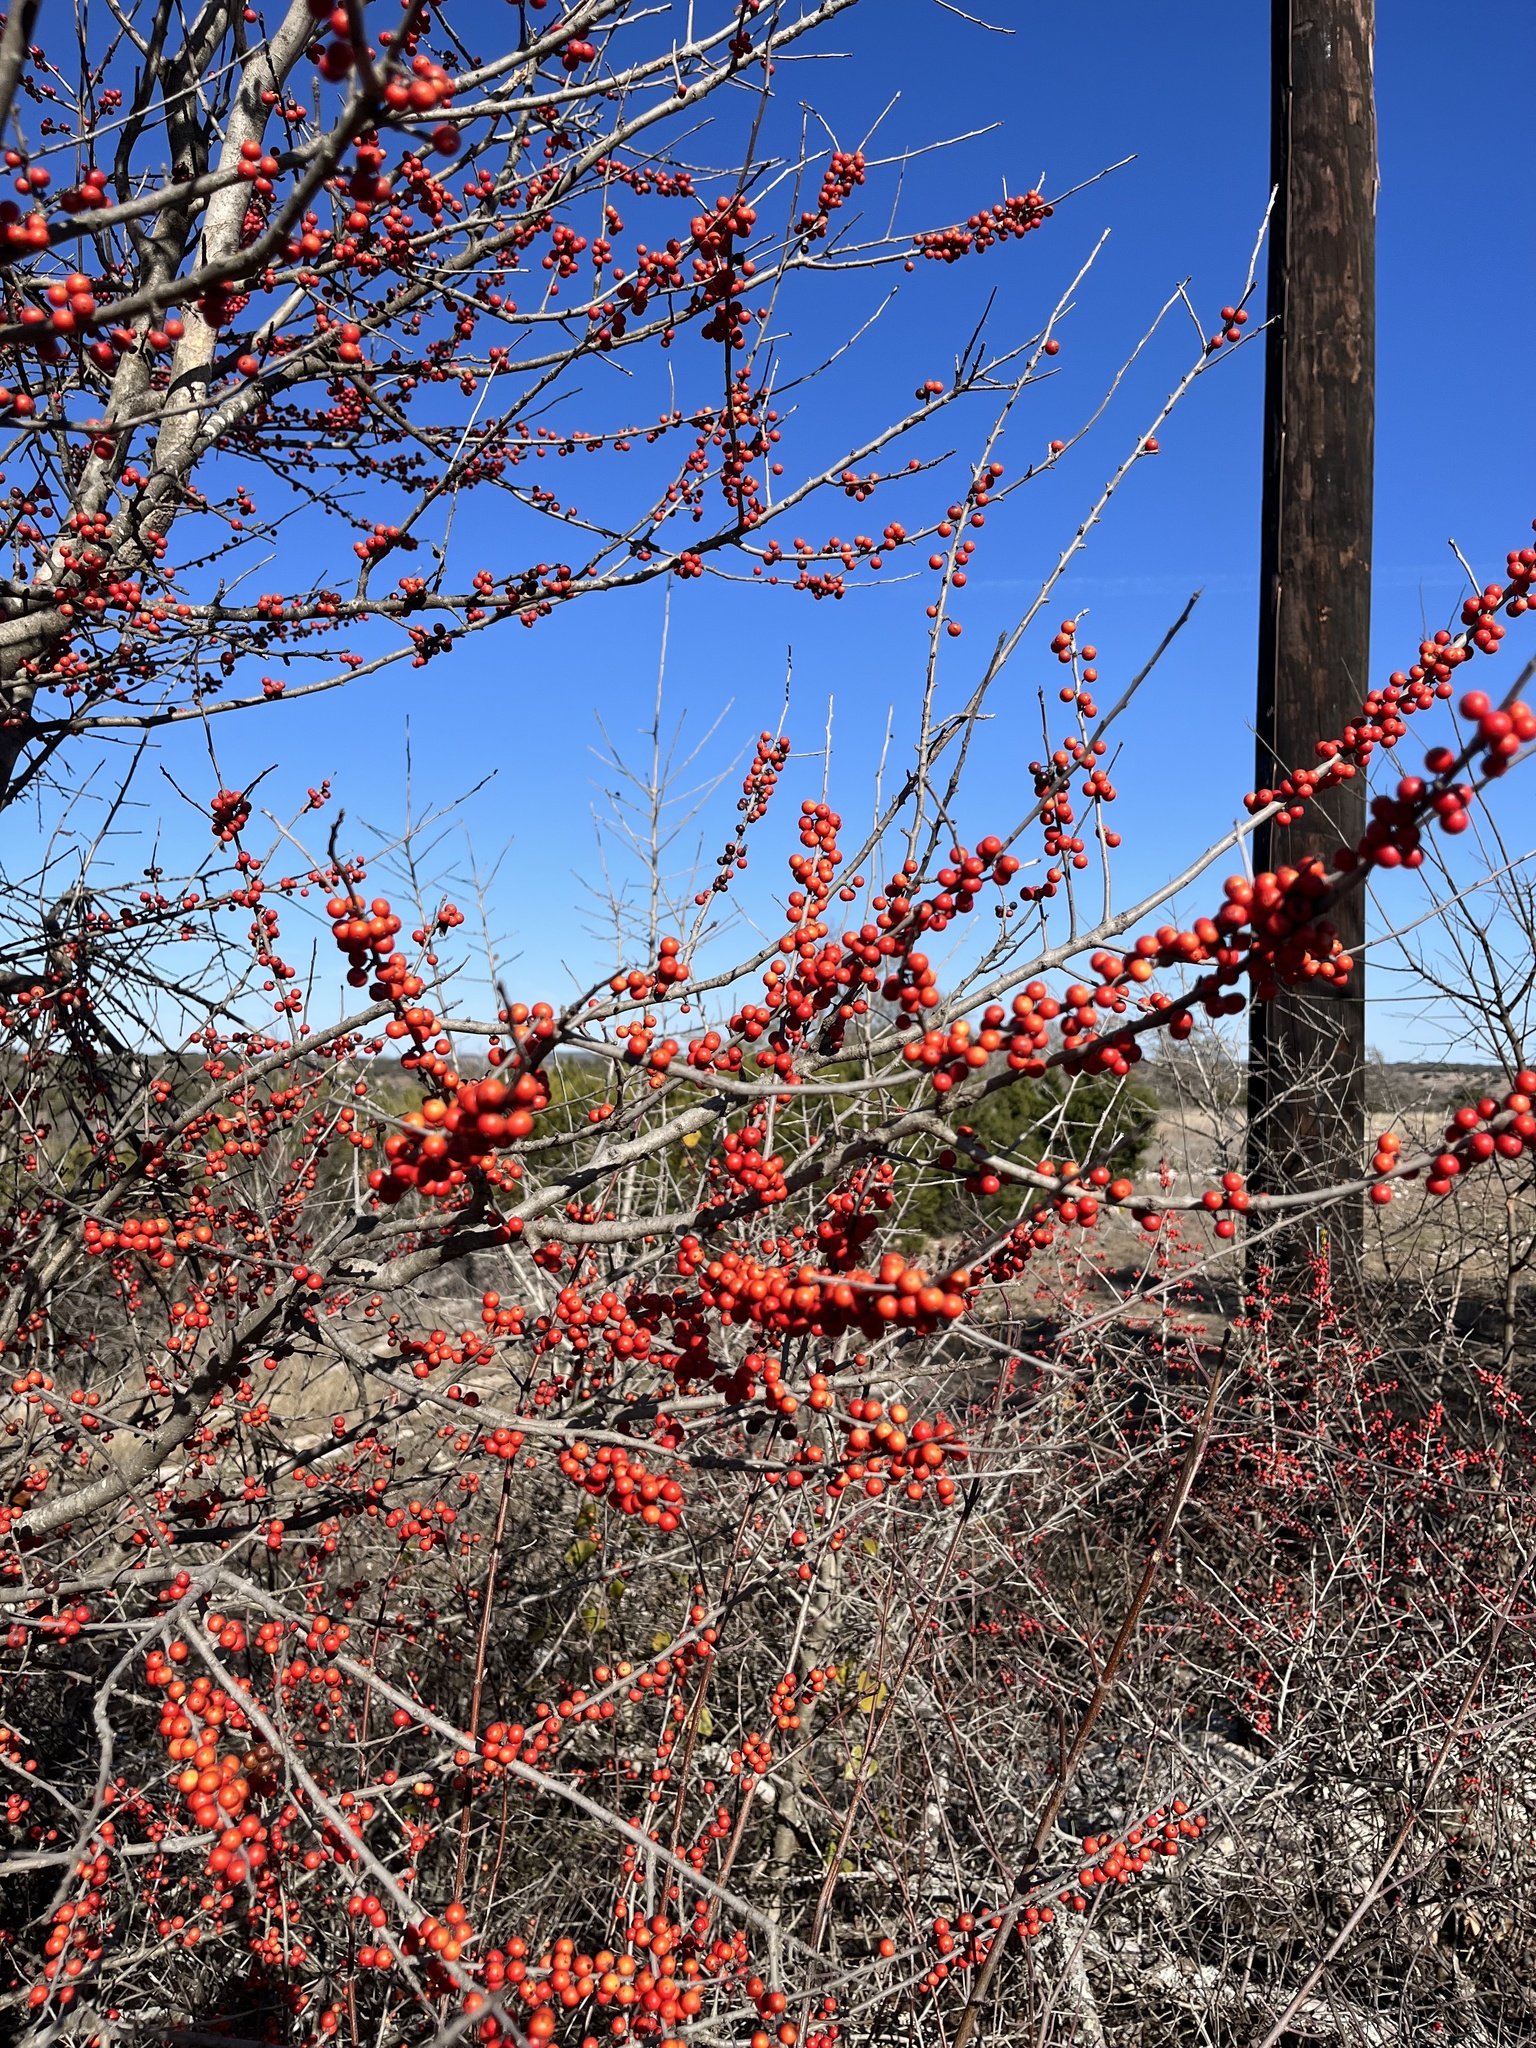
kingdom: Plantae
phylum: Tracheophyta
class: Magnoliopsida
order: Aquifoliales
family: Aquifoliaceae
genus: Ilex
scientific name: Ilex decidua
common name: Possum-haw
